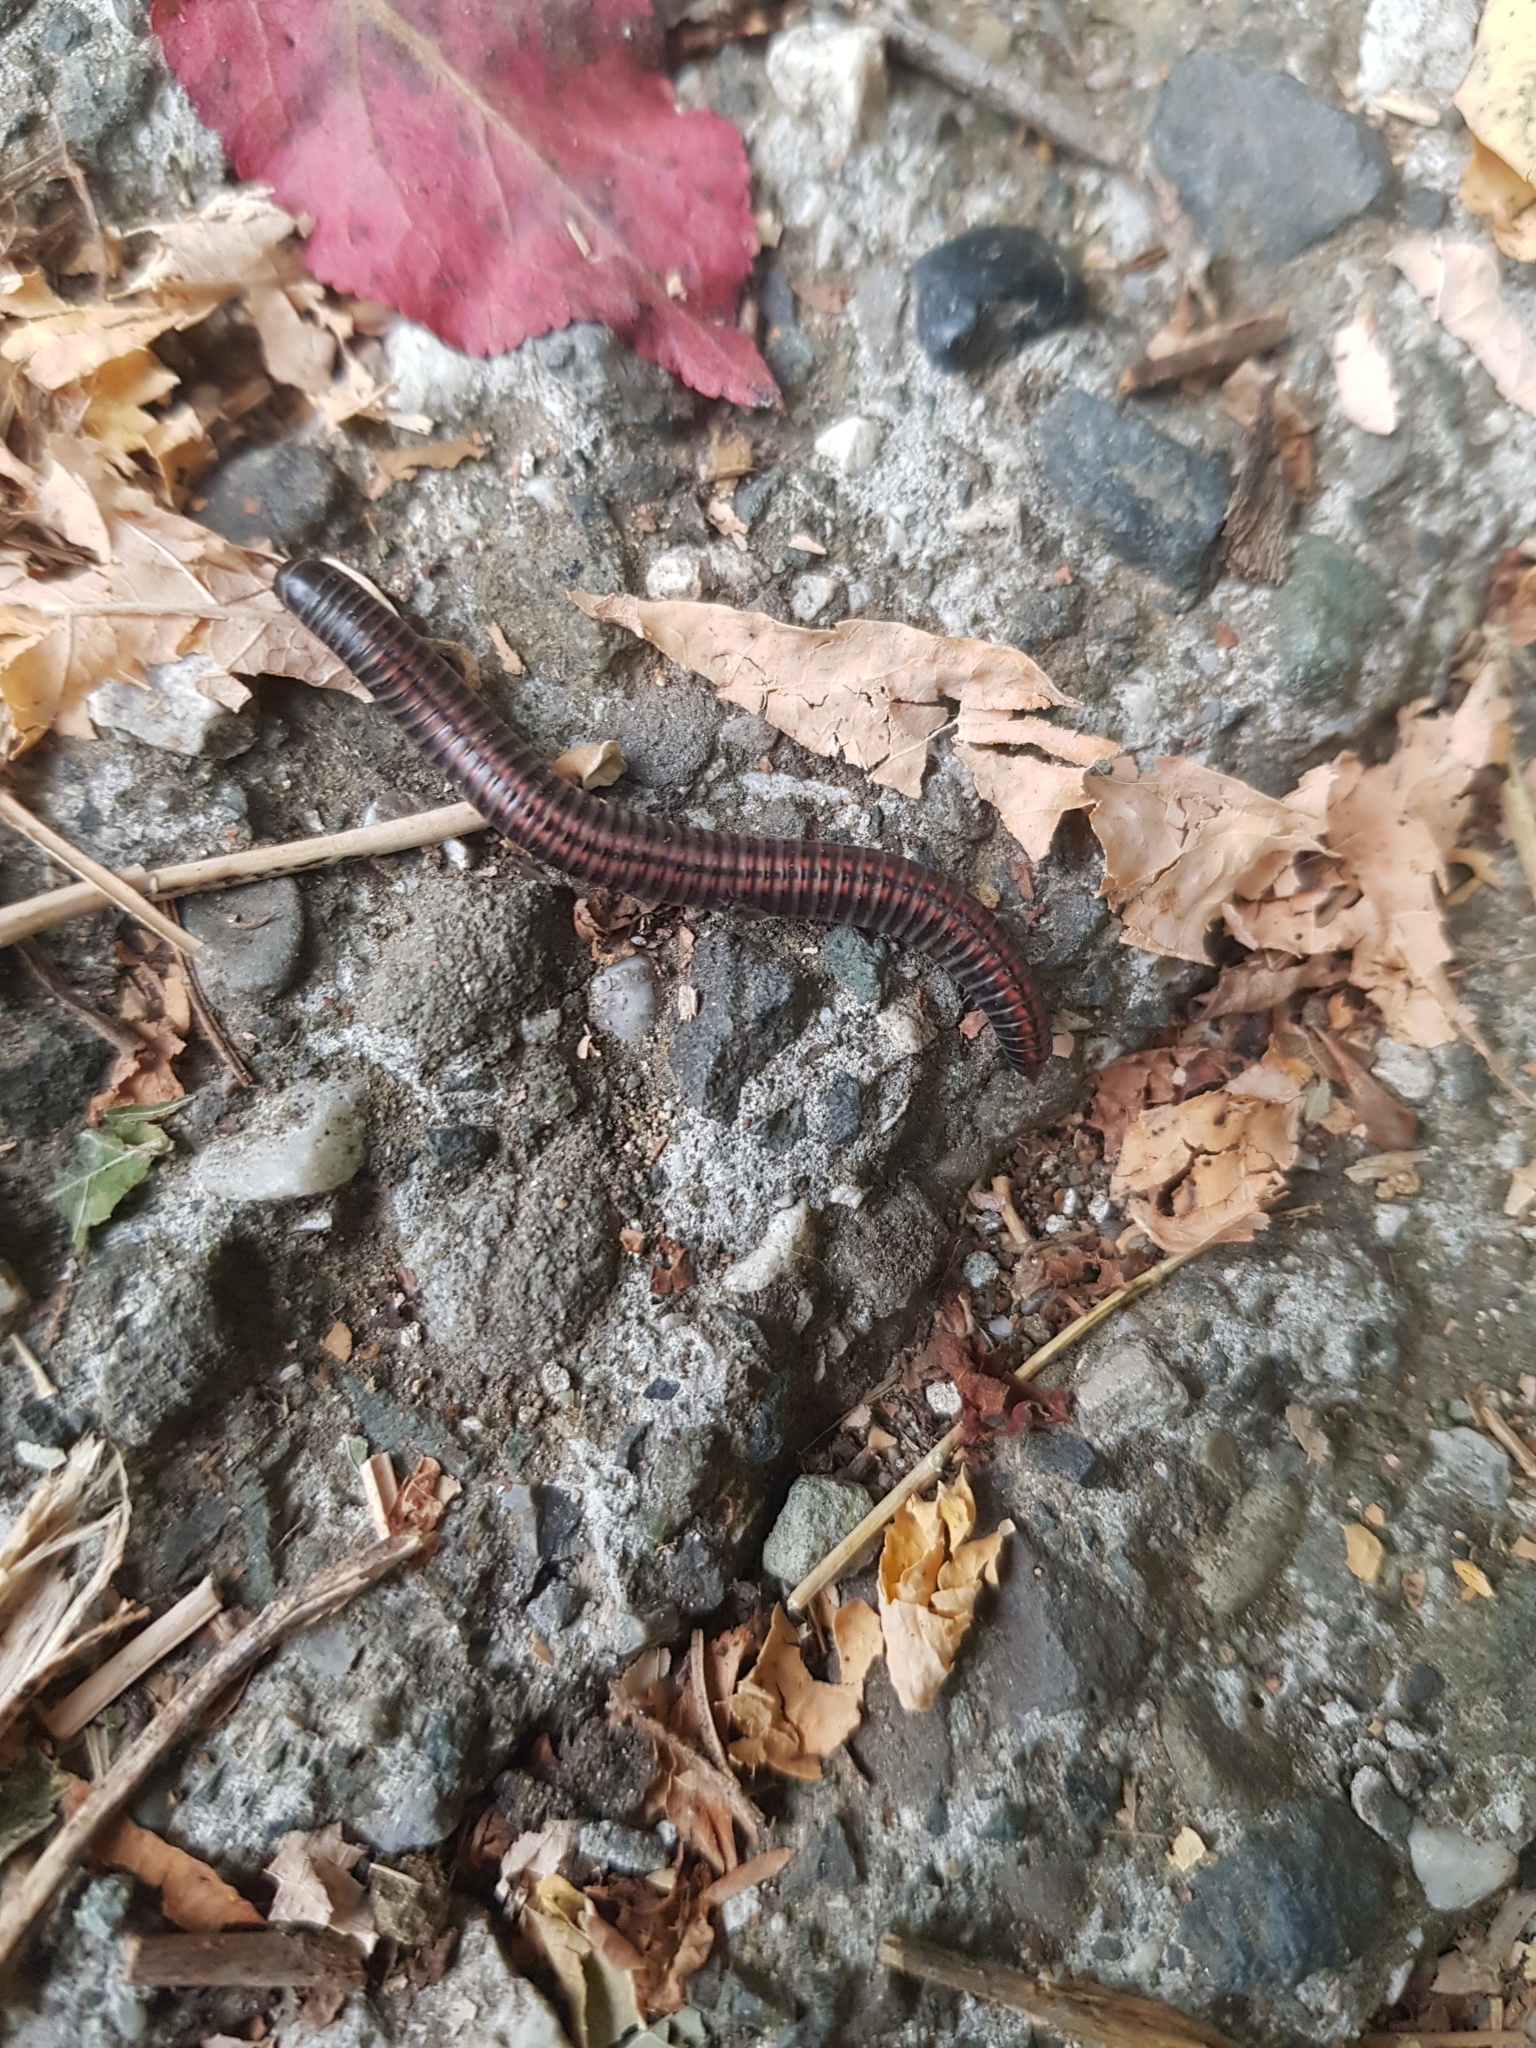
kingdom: Animalia
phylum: Arthropoda
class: Diplopoda
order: Julida
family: Julidae
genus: Ommatoiulus
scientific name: Ommatoiulus sabulosus
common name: Striped millipede
